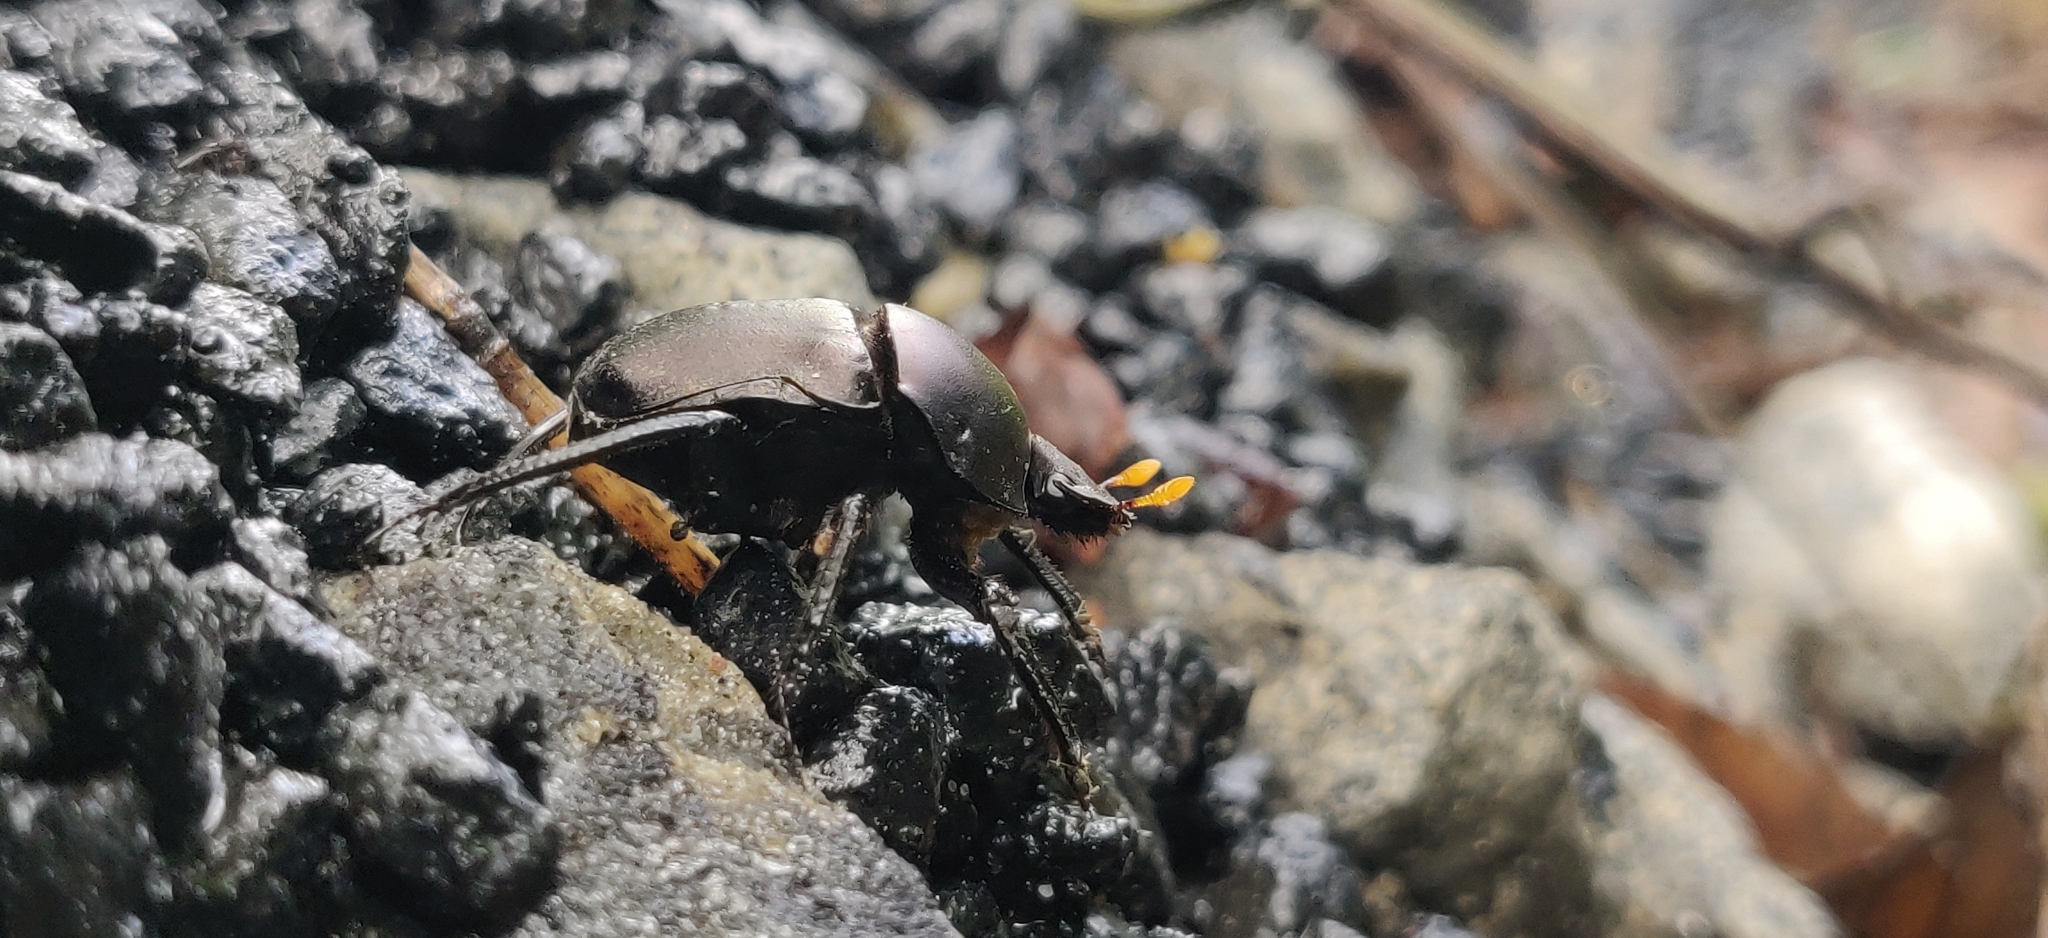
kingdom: Animalia
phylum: Arthropoda
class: Insecta
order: Coleoptera
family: Scarabaeidae
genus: Paragymnopleurus
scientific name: Paragymnopleurus sinuatus
